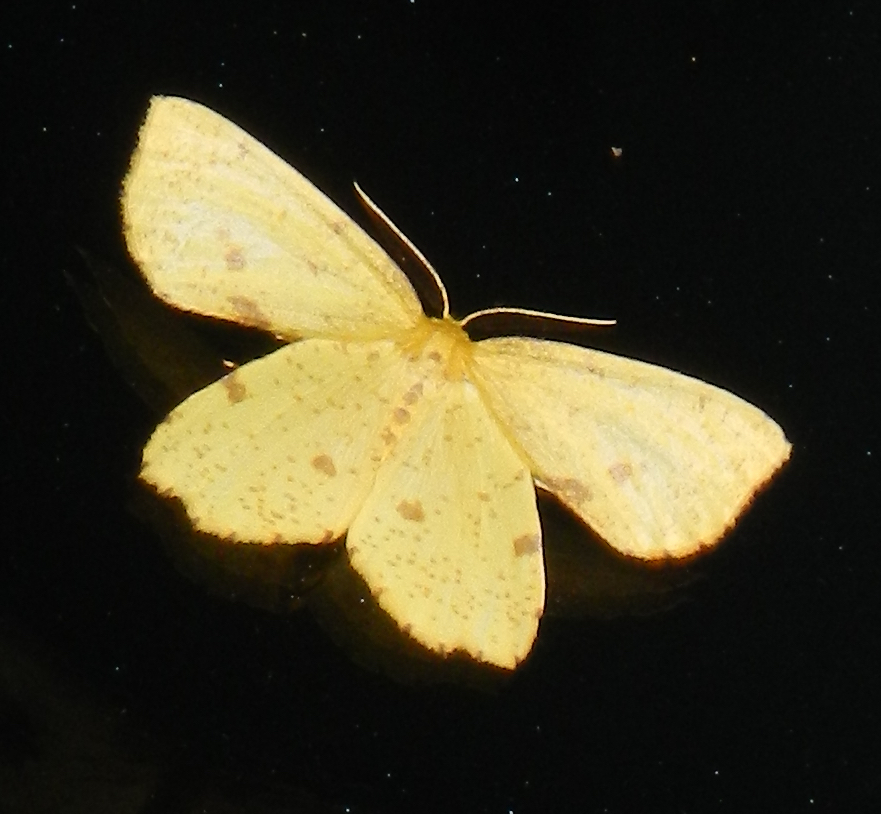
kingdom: Animalia
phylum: Arthropoda
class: Insecta
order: Lepidoptera
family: Geometridae
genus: Xanthotype
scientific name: Xanthotype
